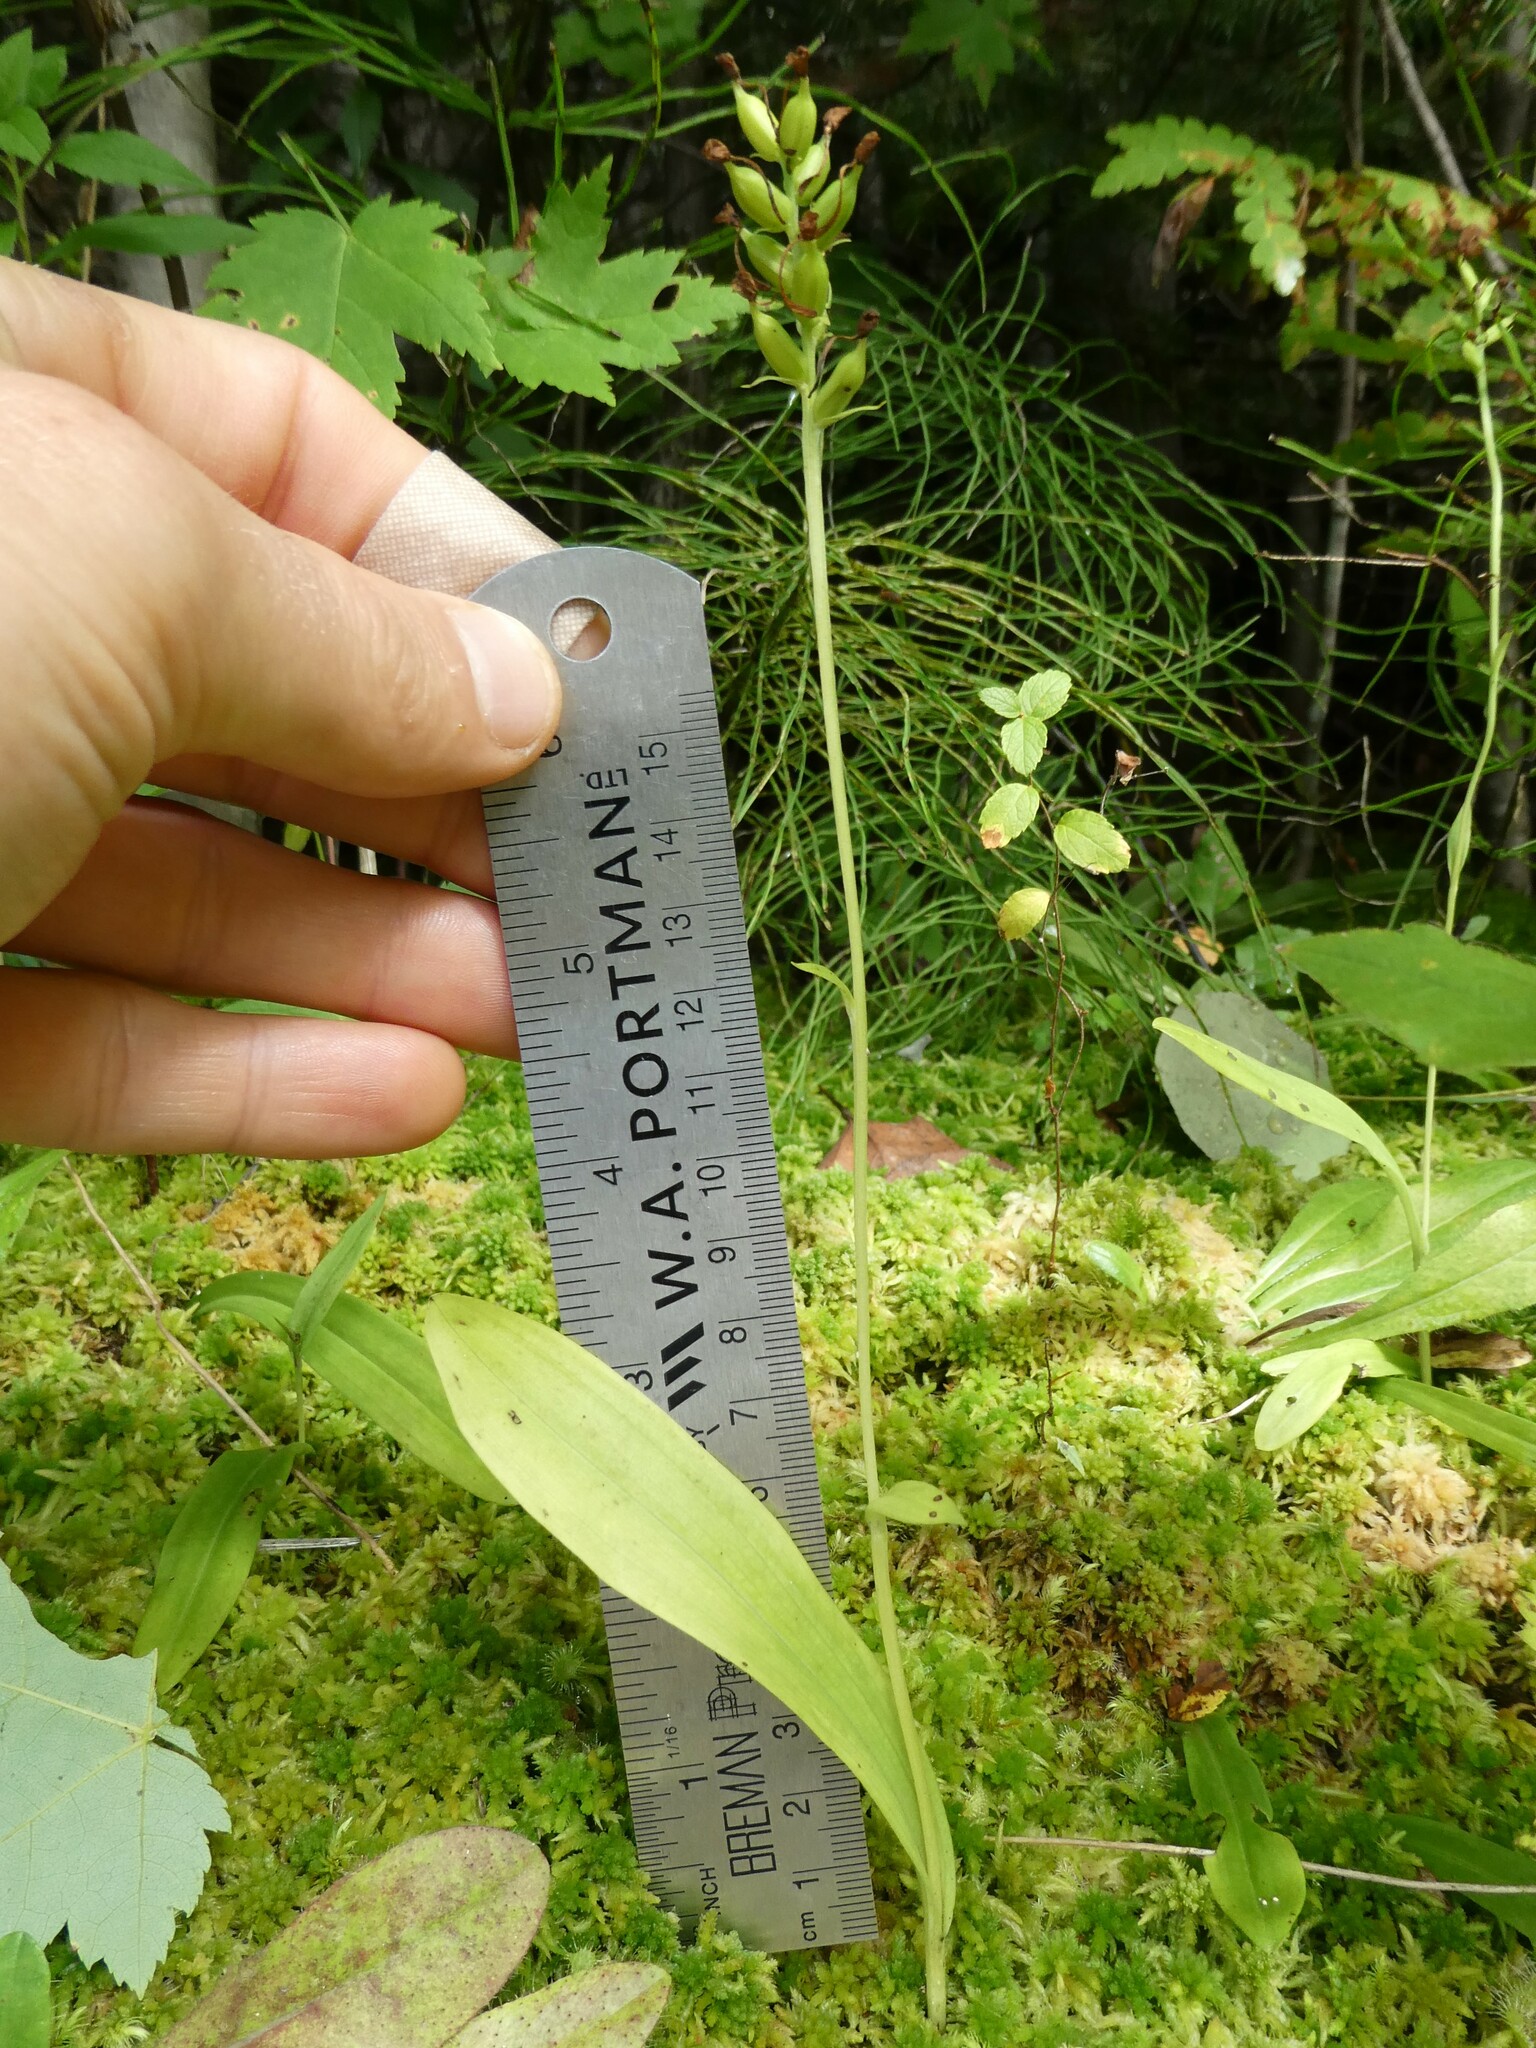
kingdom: Plantae
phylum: Tracheophyta
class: Liliopsida
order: Asparagales
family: Orchidaceae
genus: Platanthera
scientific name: Platanthera clavellata
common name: Club-spur orchid
